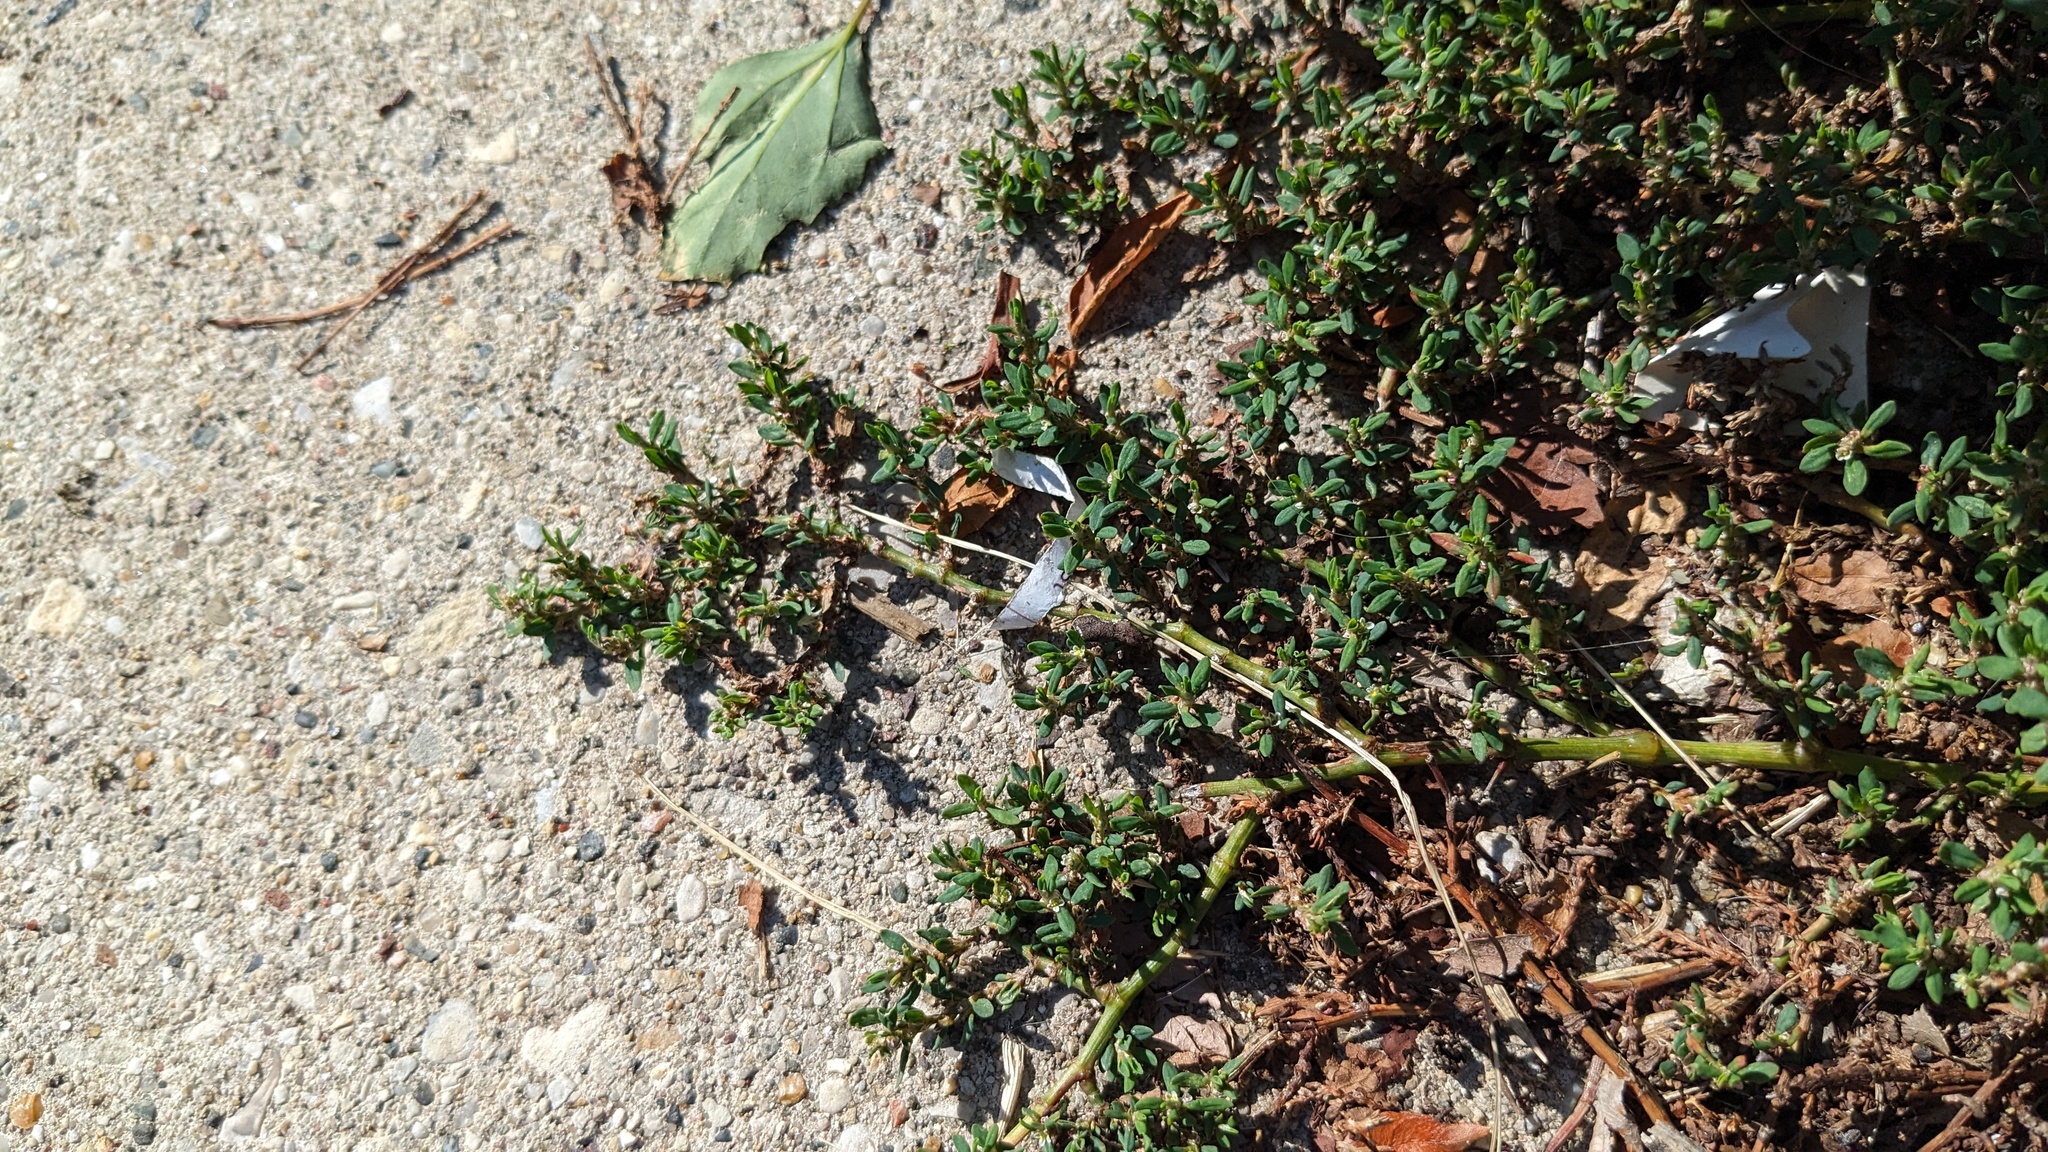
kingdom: Plantae
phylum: Tracheophyta
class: Magnoliopsida
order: Caryophyllales
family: Polygonaceae
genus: Polygonum
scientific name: Polygonum aviculare
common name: Prostrate knotweed
